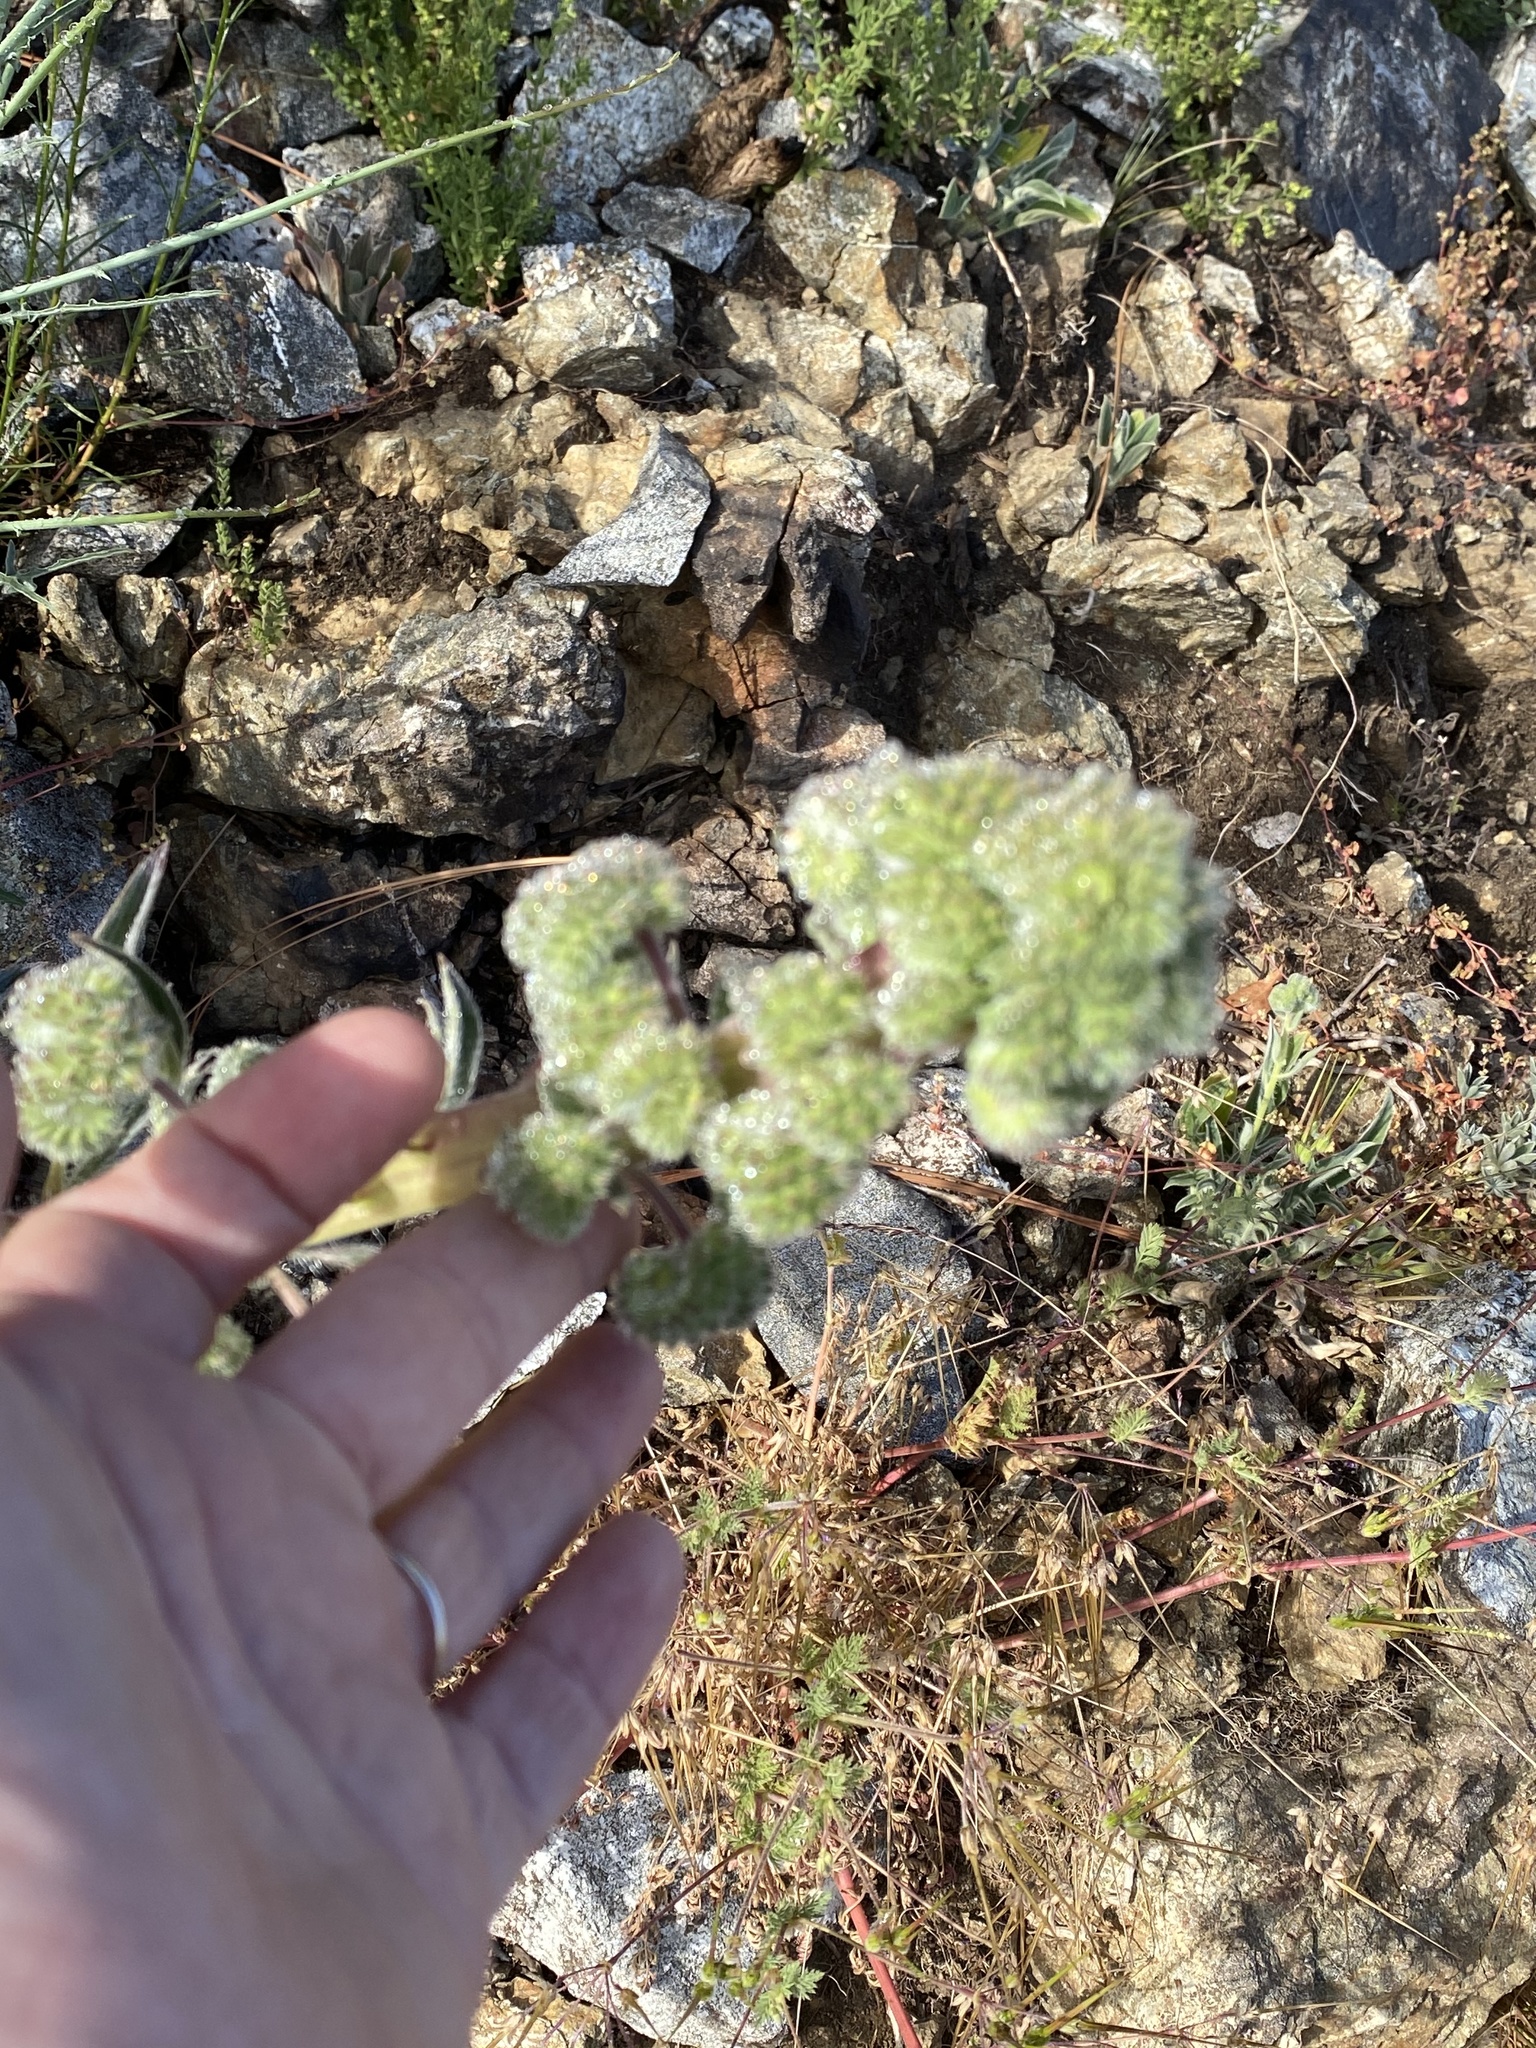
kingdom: Plantae
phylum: Tracheophyta
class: Magnoliopsida
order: Boraginales
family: Hydrophyllaceae
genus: Phacelia
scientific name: Phacelia imbricata
